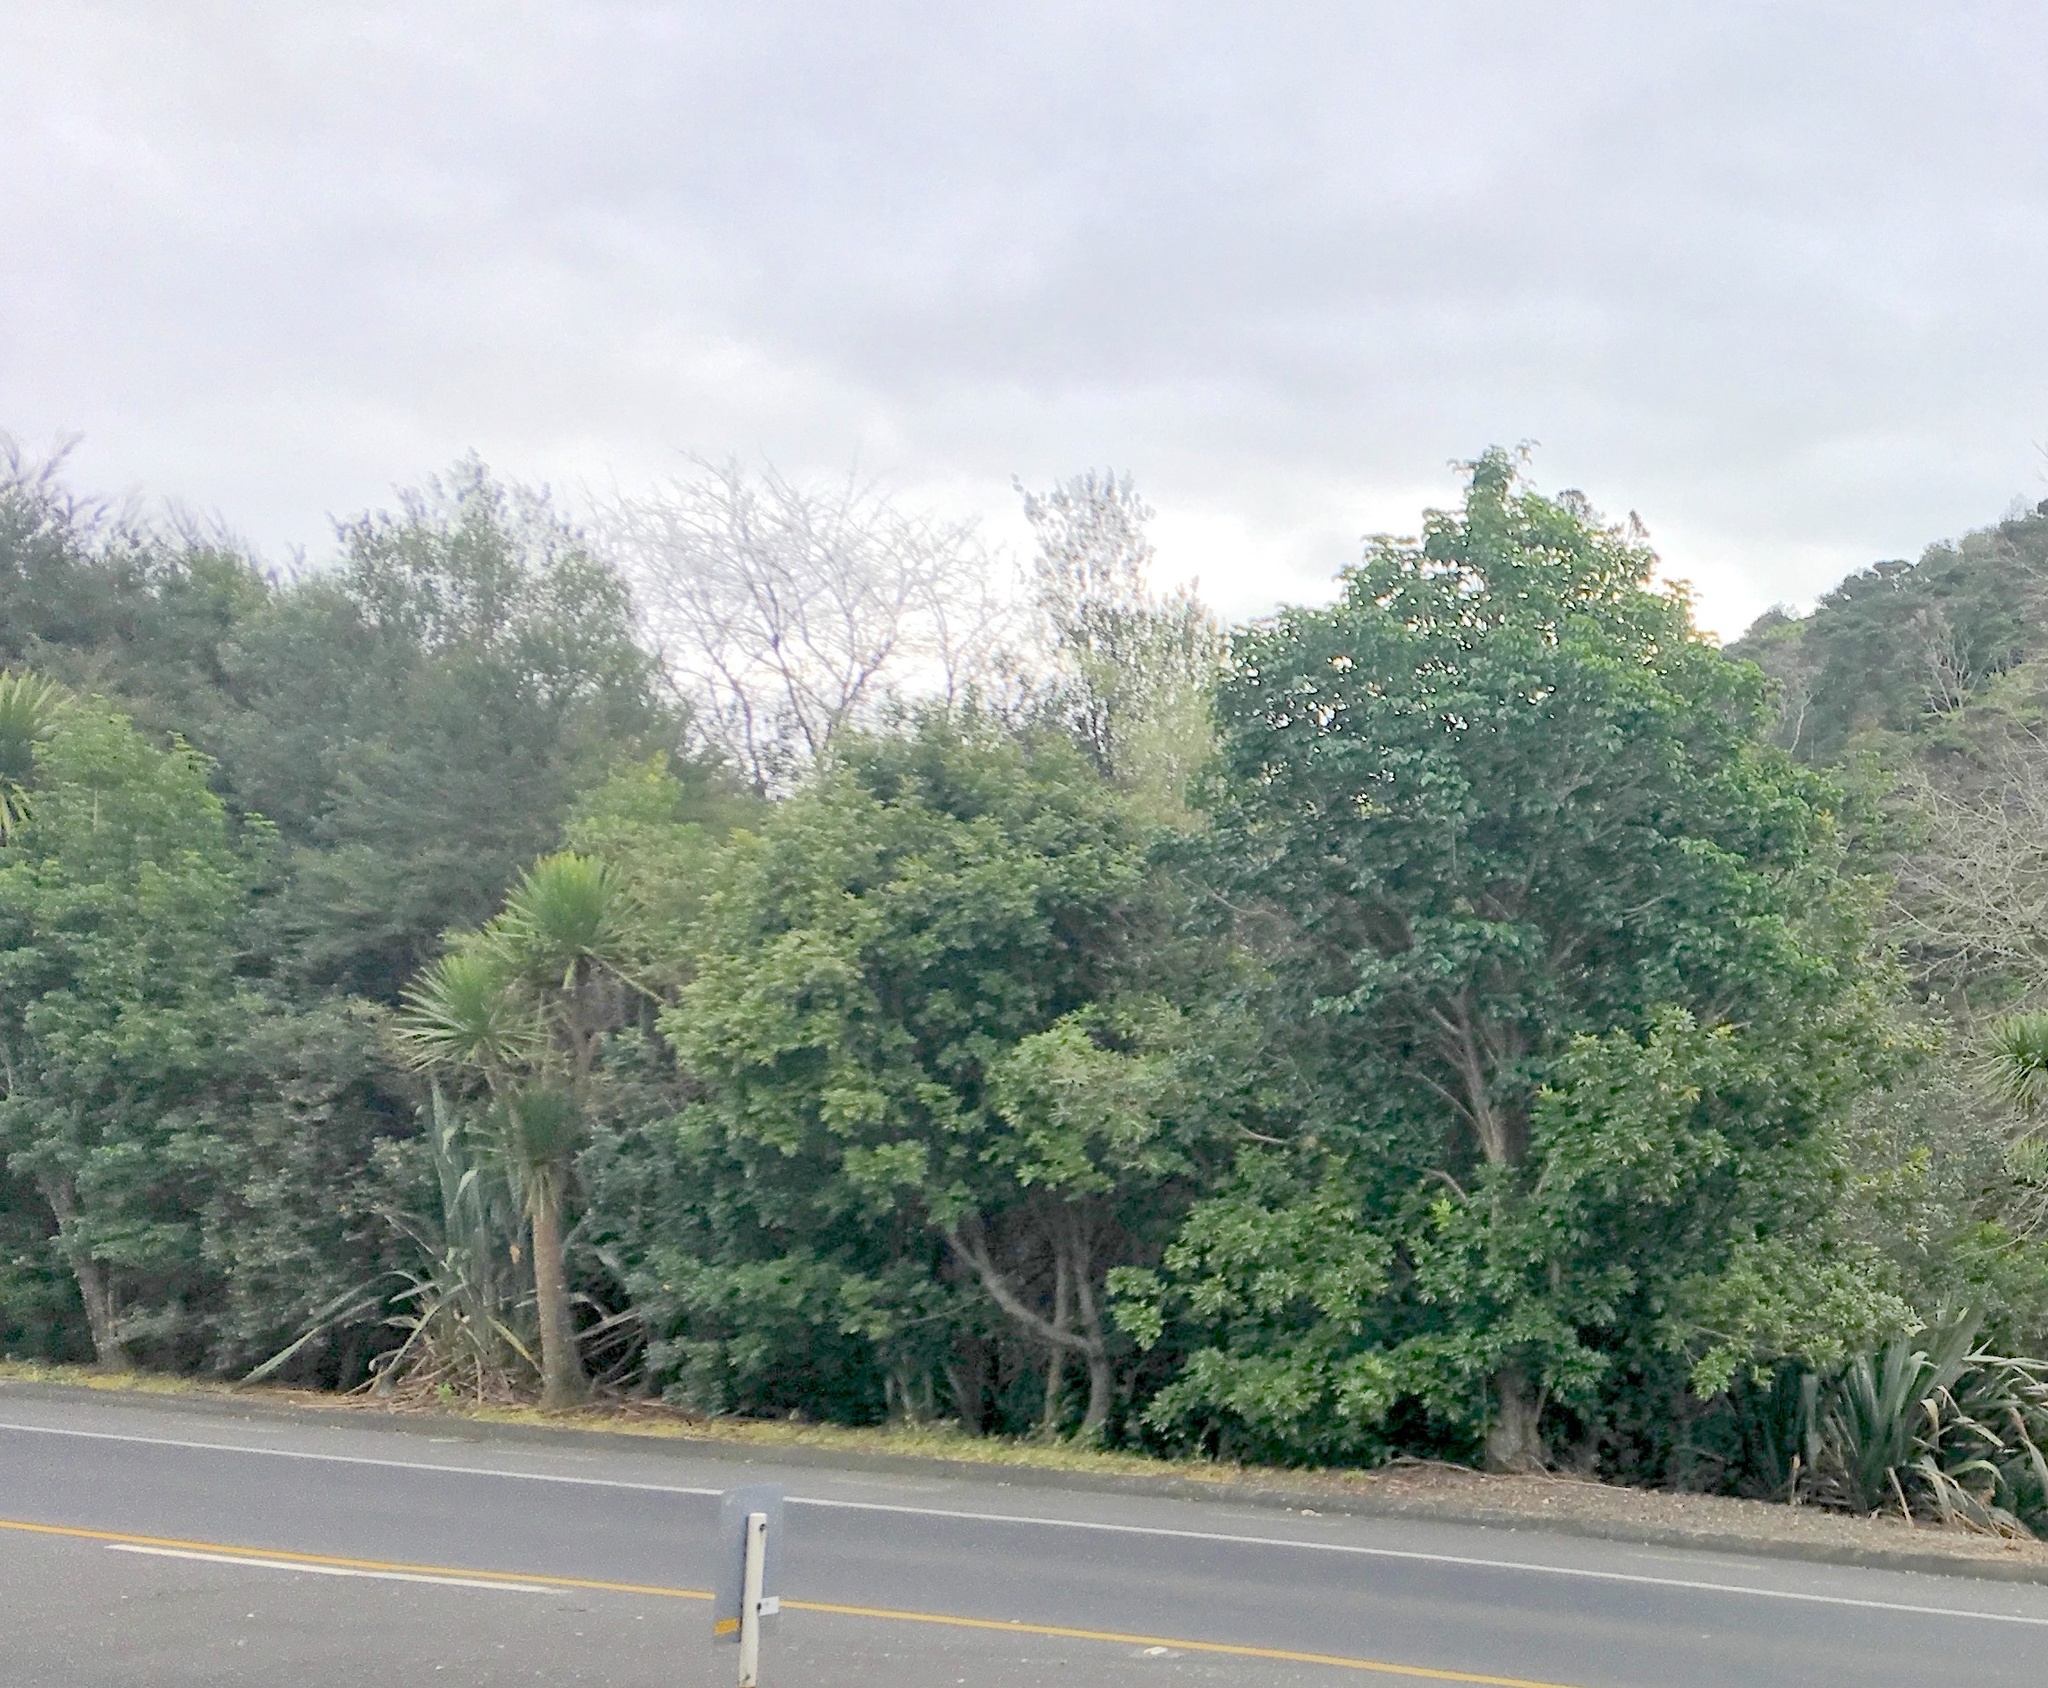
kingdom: Plantae
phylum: Tracheophyta
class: Magnoliopsida
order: Myrtales
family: Myrtaceae
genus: Kunzea
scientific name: Kunzea robusta
